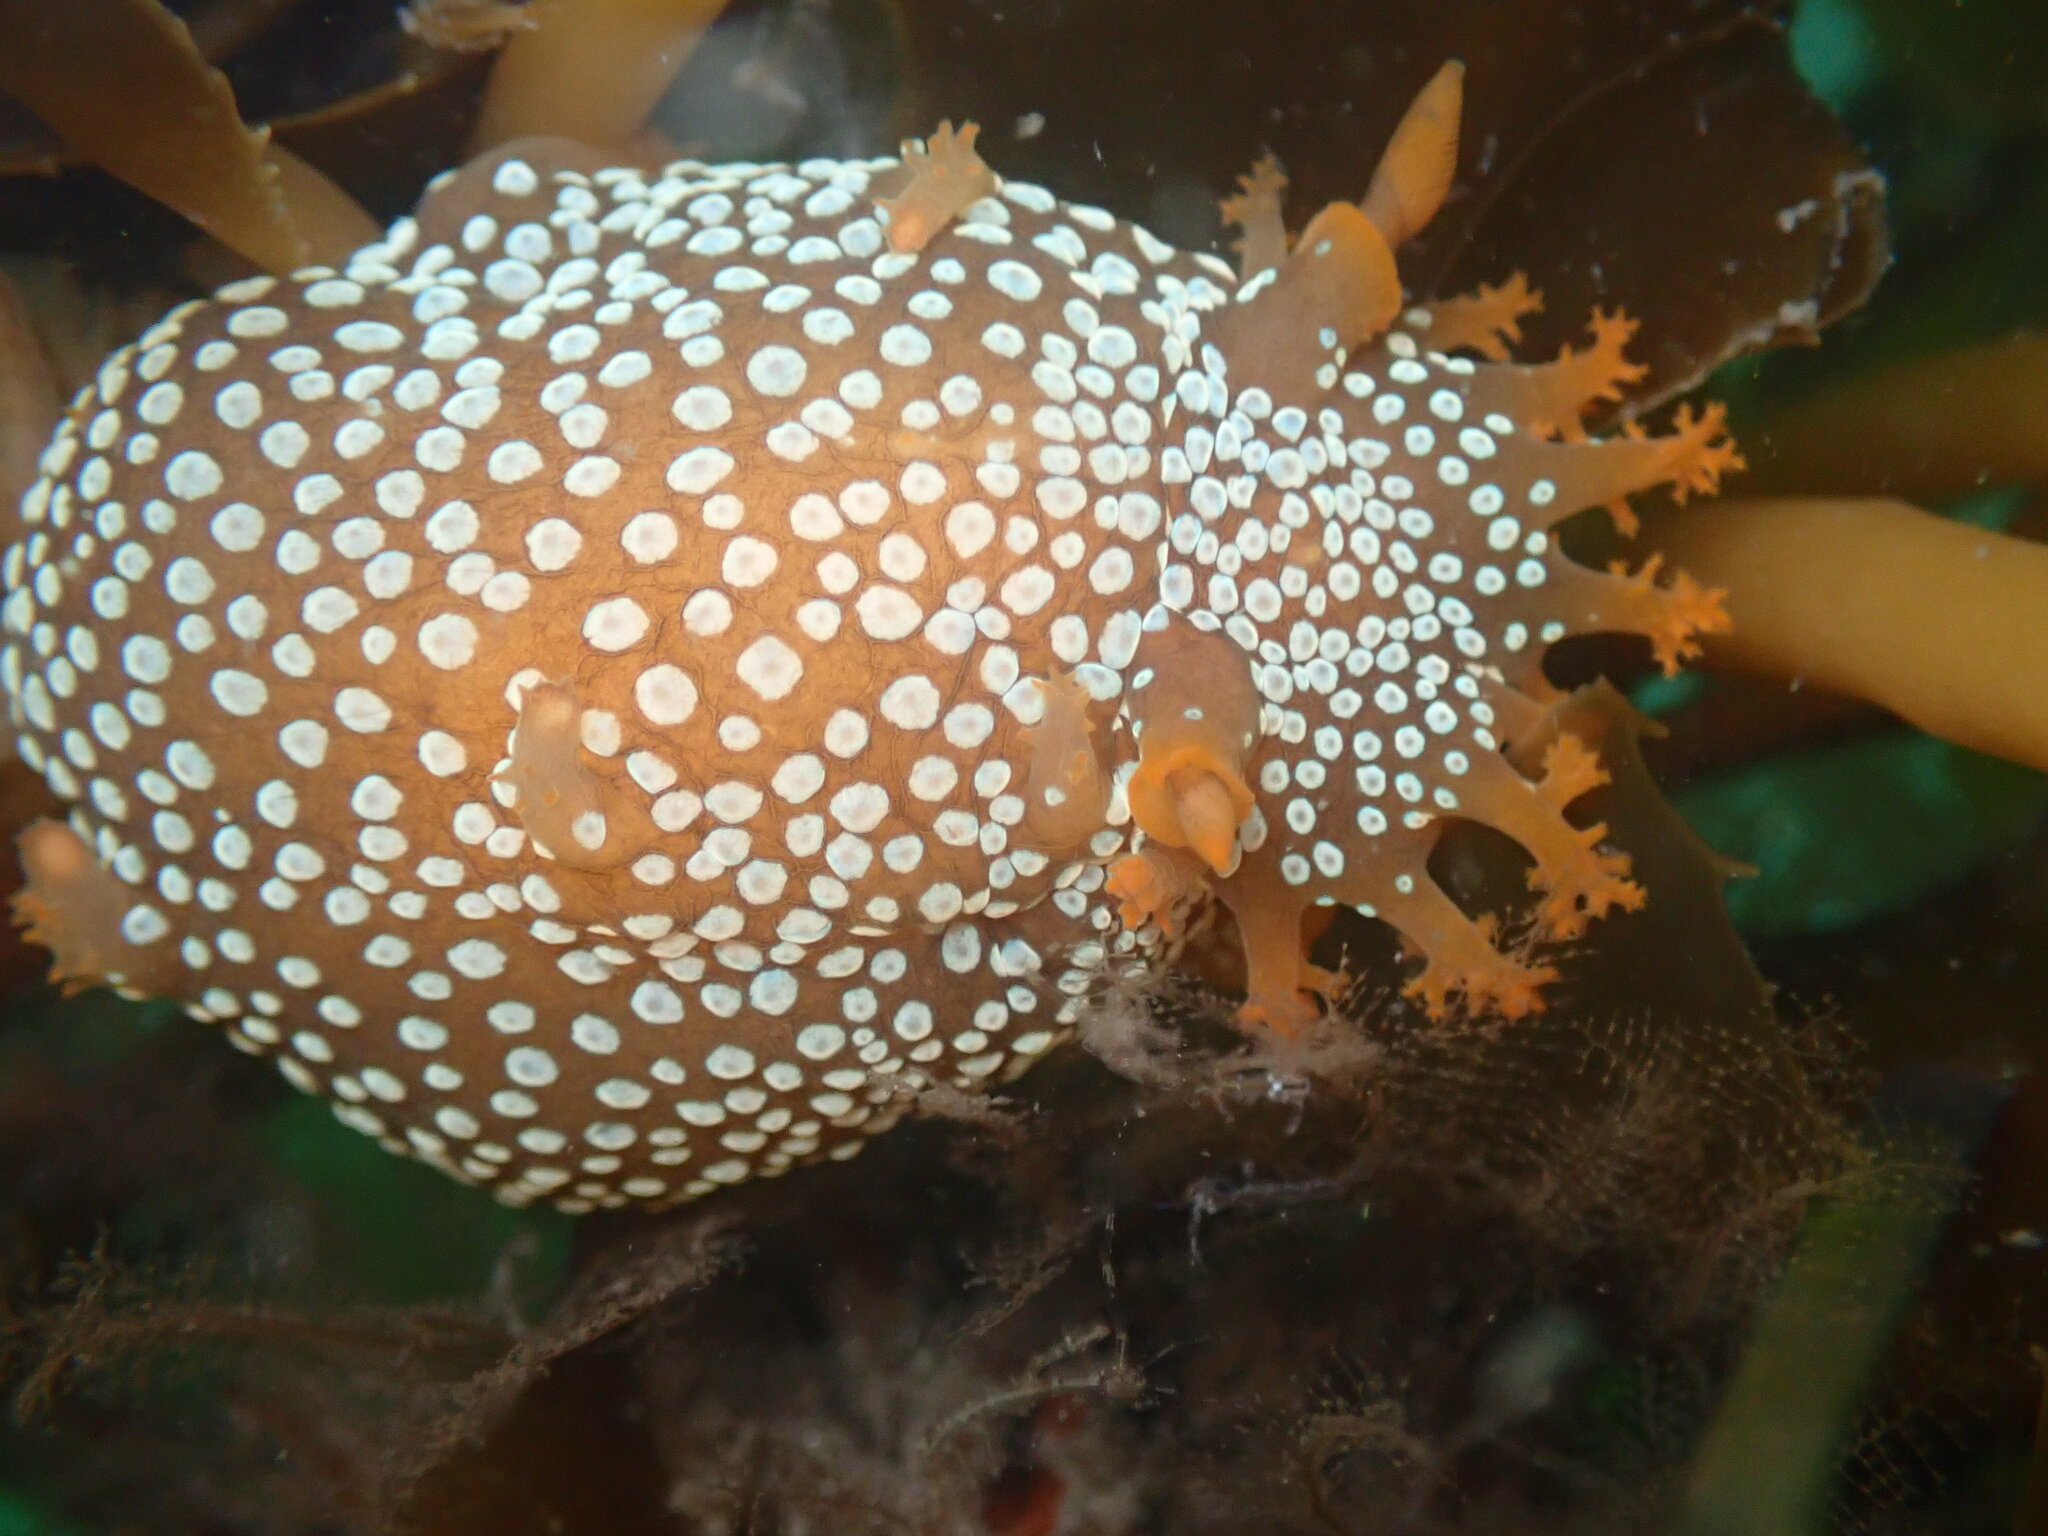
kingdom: Animalia
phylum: Mollusca
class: Gastropoda
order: Nudibranchia
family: Polyceridae
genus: Triopha
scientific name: Triopha maculata
